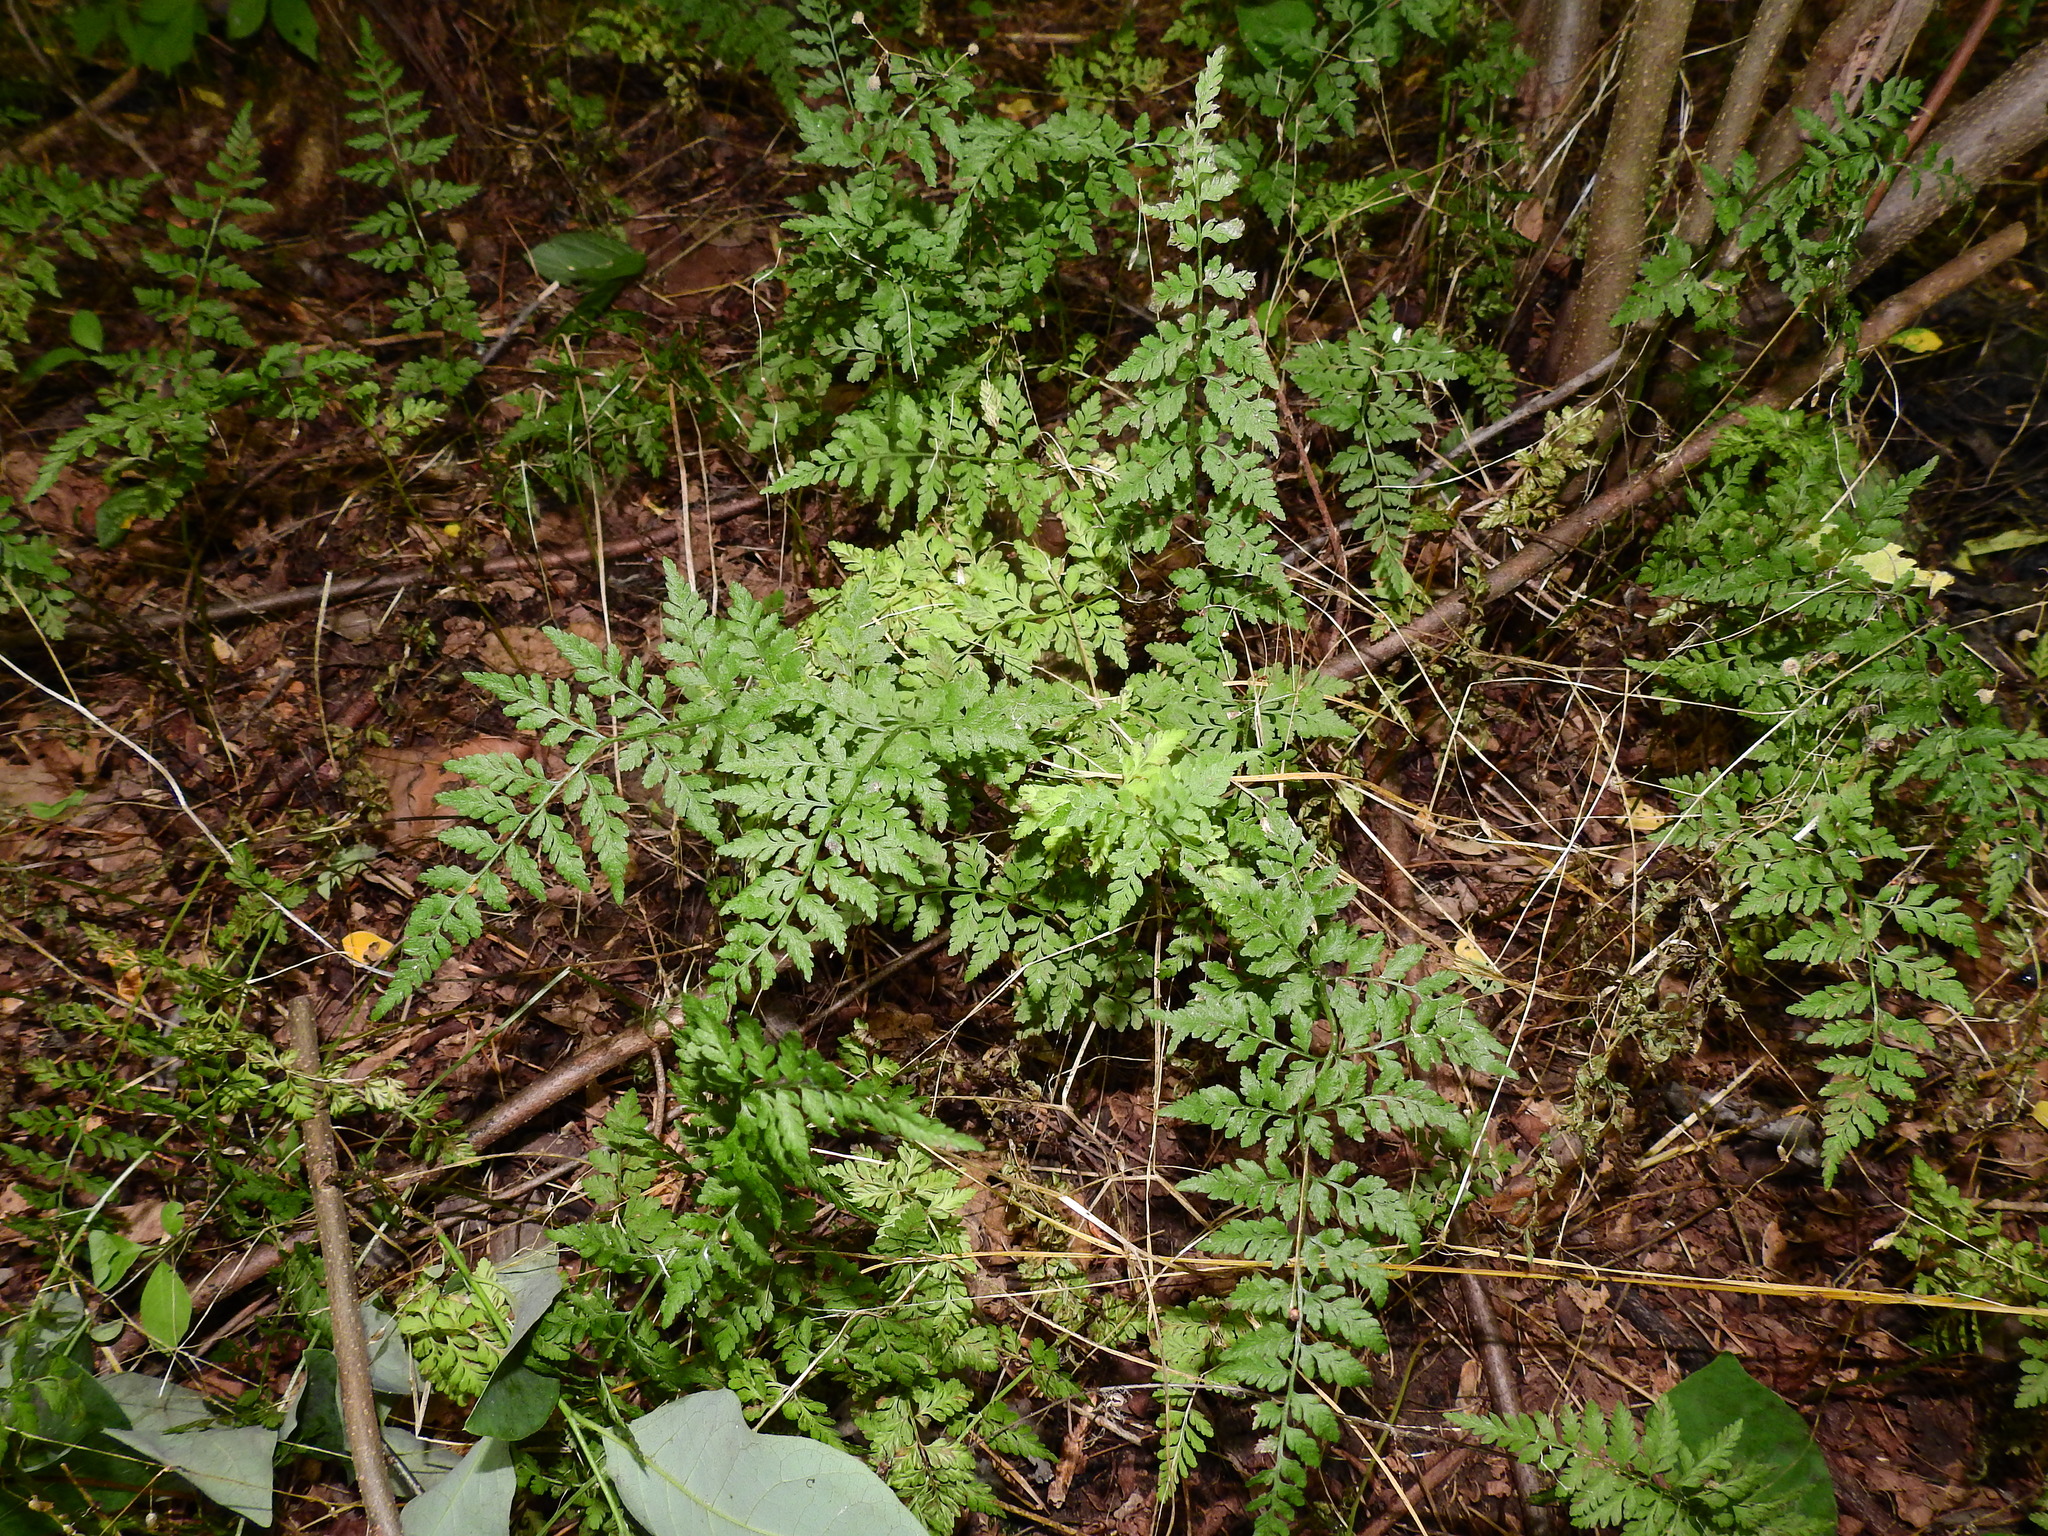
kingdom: Plantae
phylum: Tracheophyta
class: Polypodiopsida
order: Polypodiales
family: Cystopteridaceae
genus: Cystopteris
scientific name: Cystopteris protrusa
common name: Lowland brittle fern
